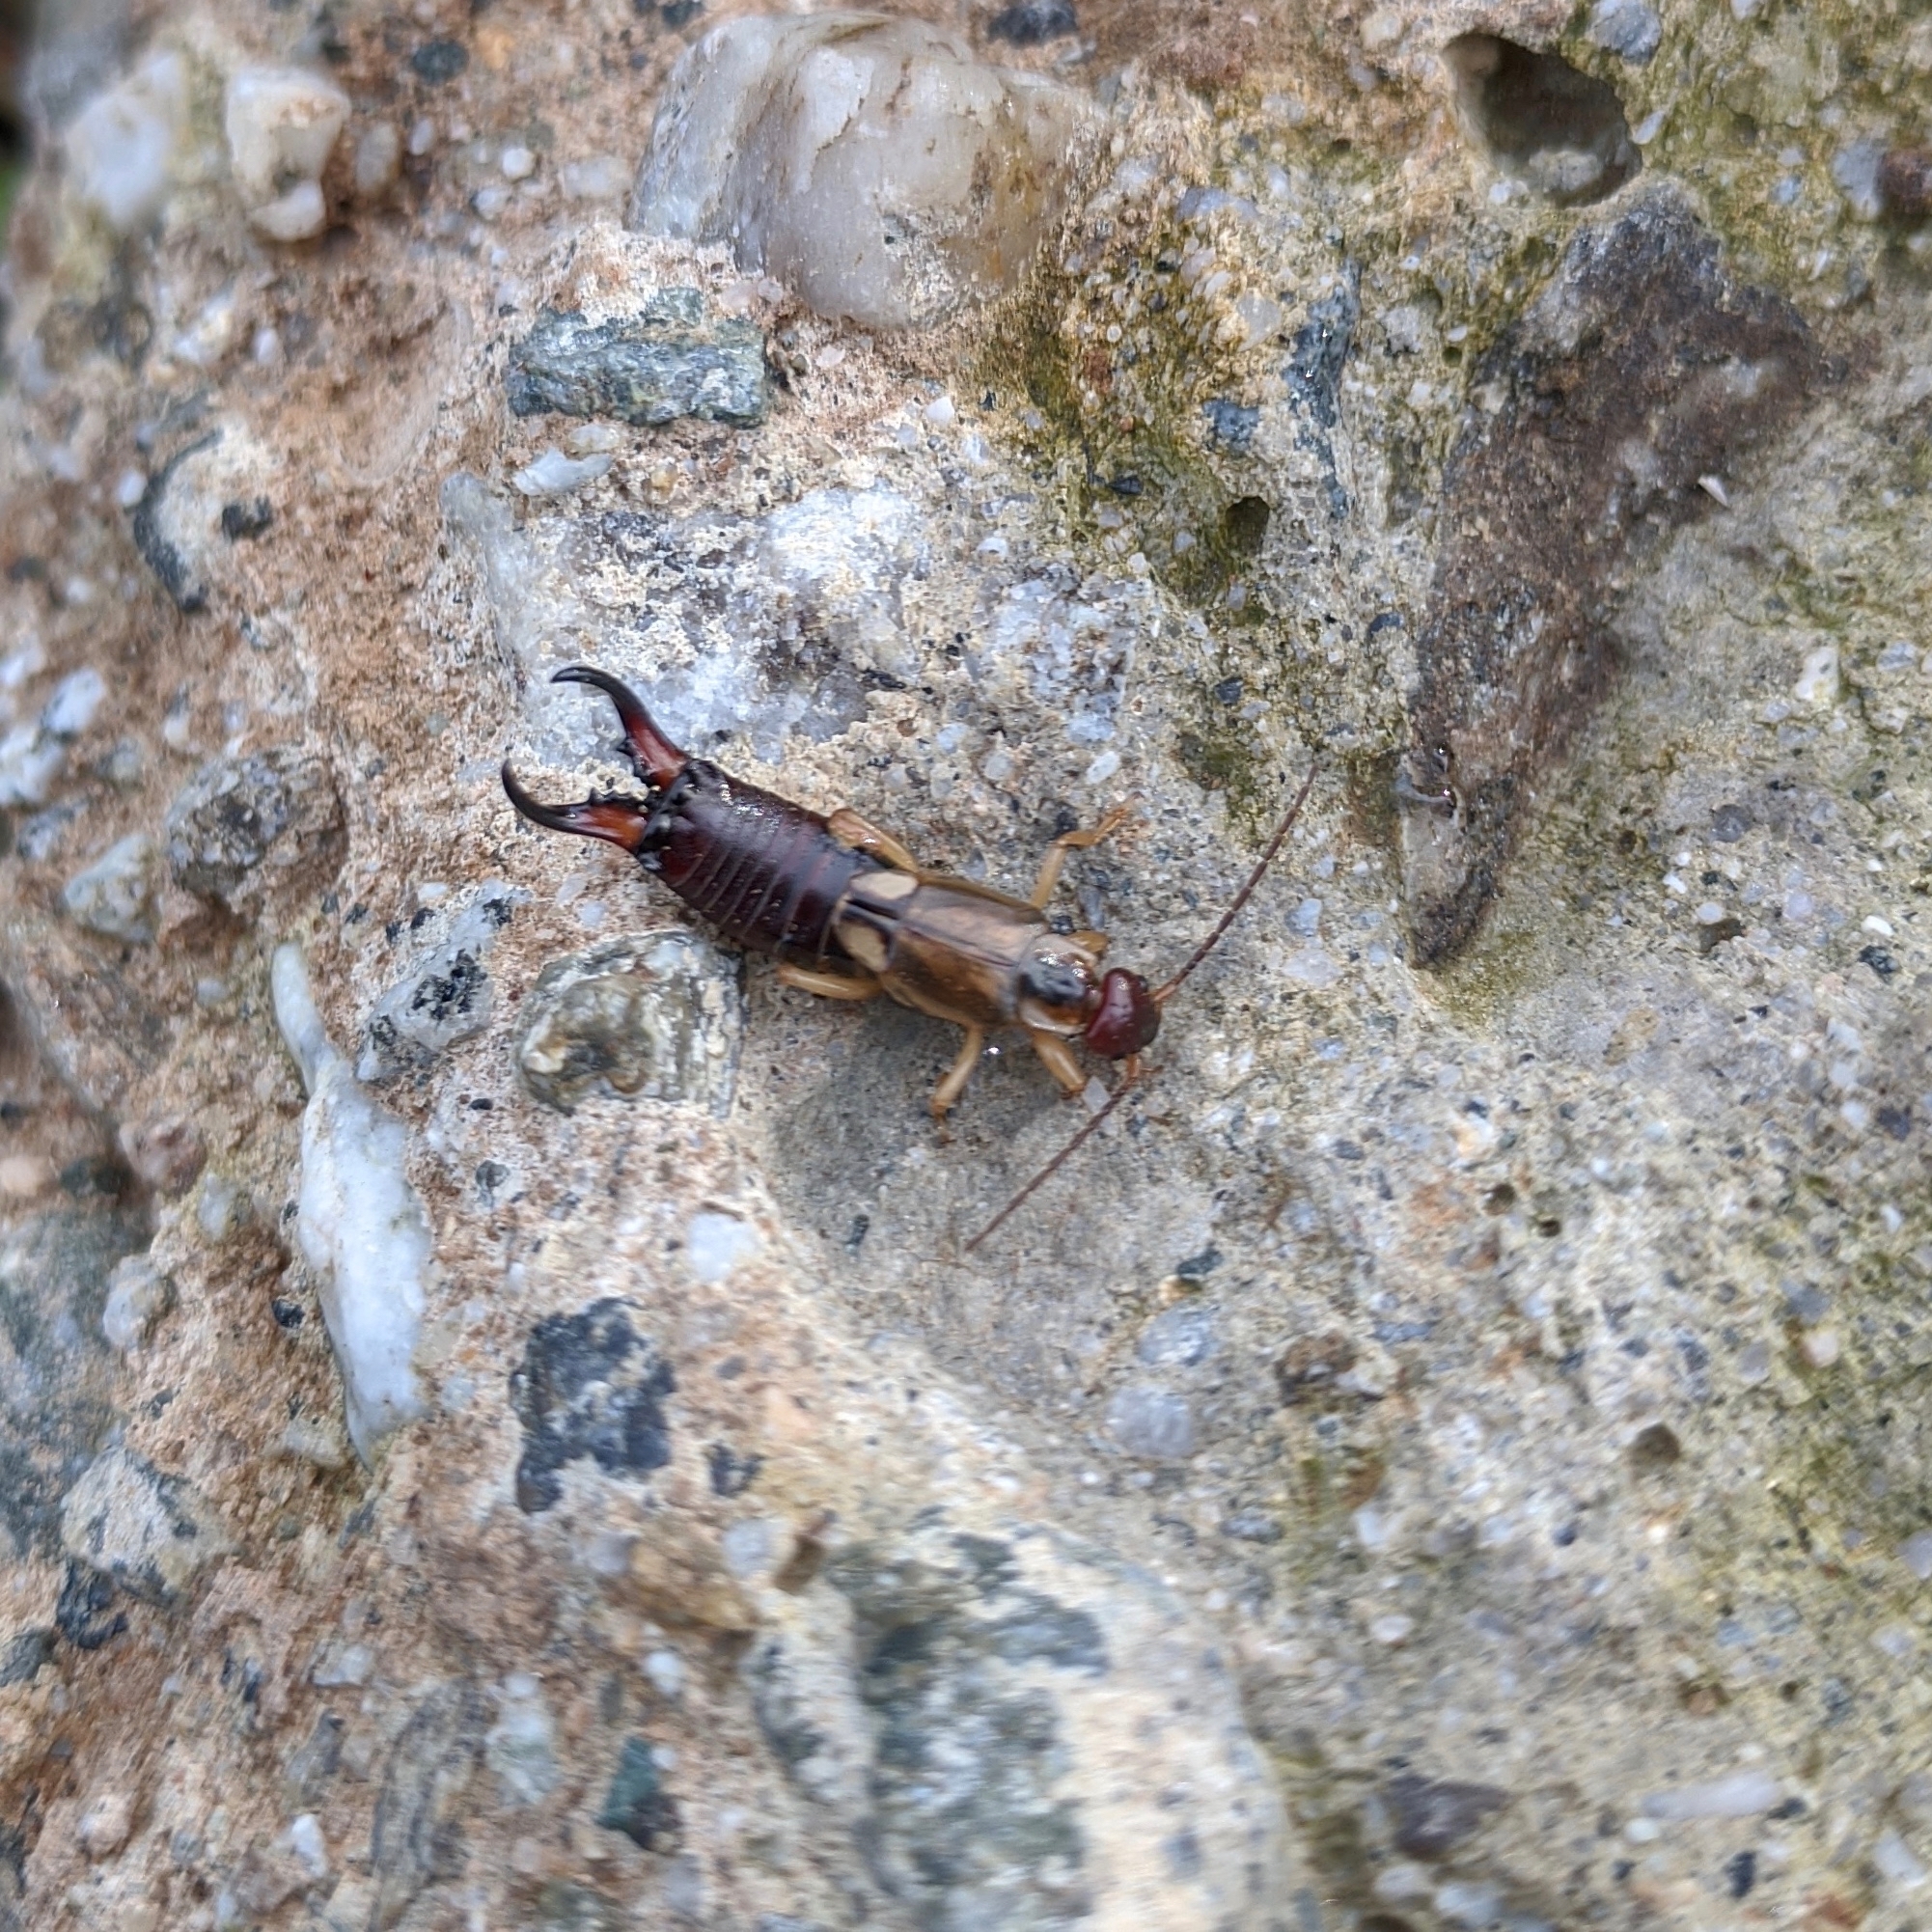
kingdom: Animalia
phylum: Arthropoda
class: Insecta
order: Dermaptera
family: Forficulidae
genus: Forficula
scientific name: Forficula
